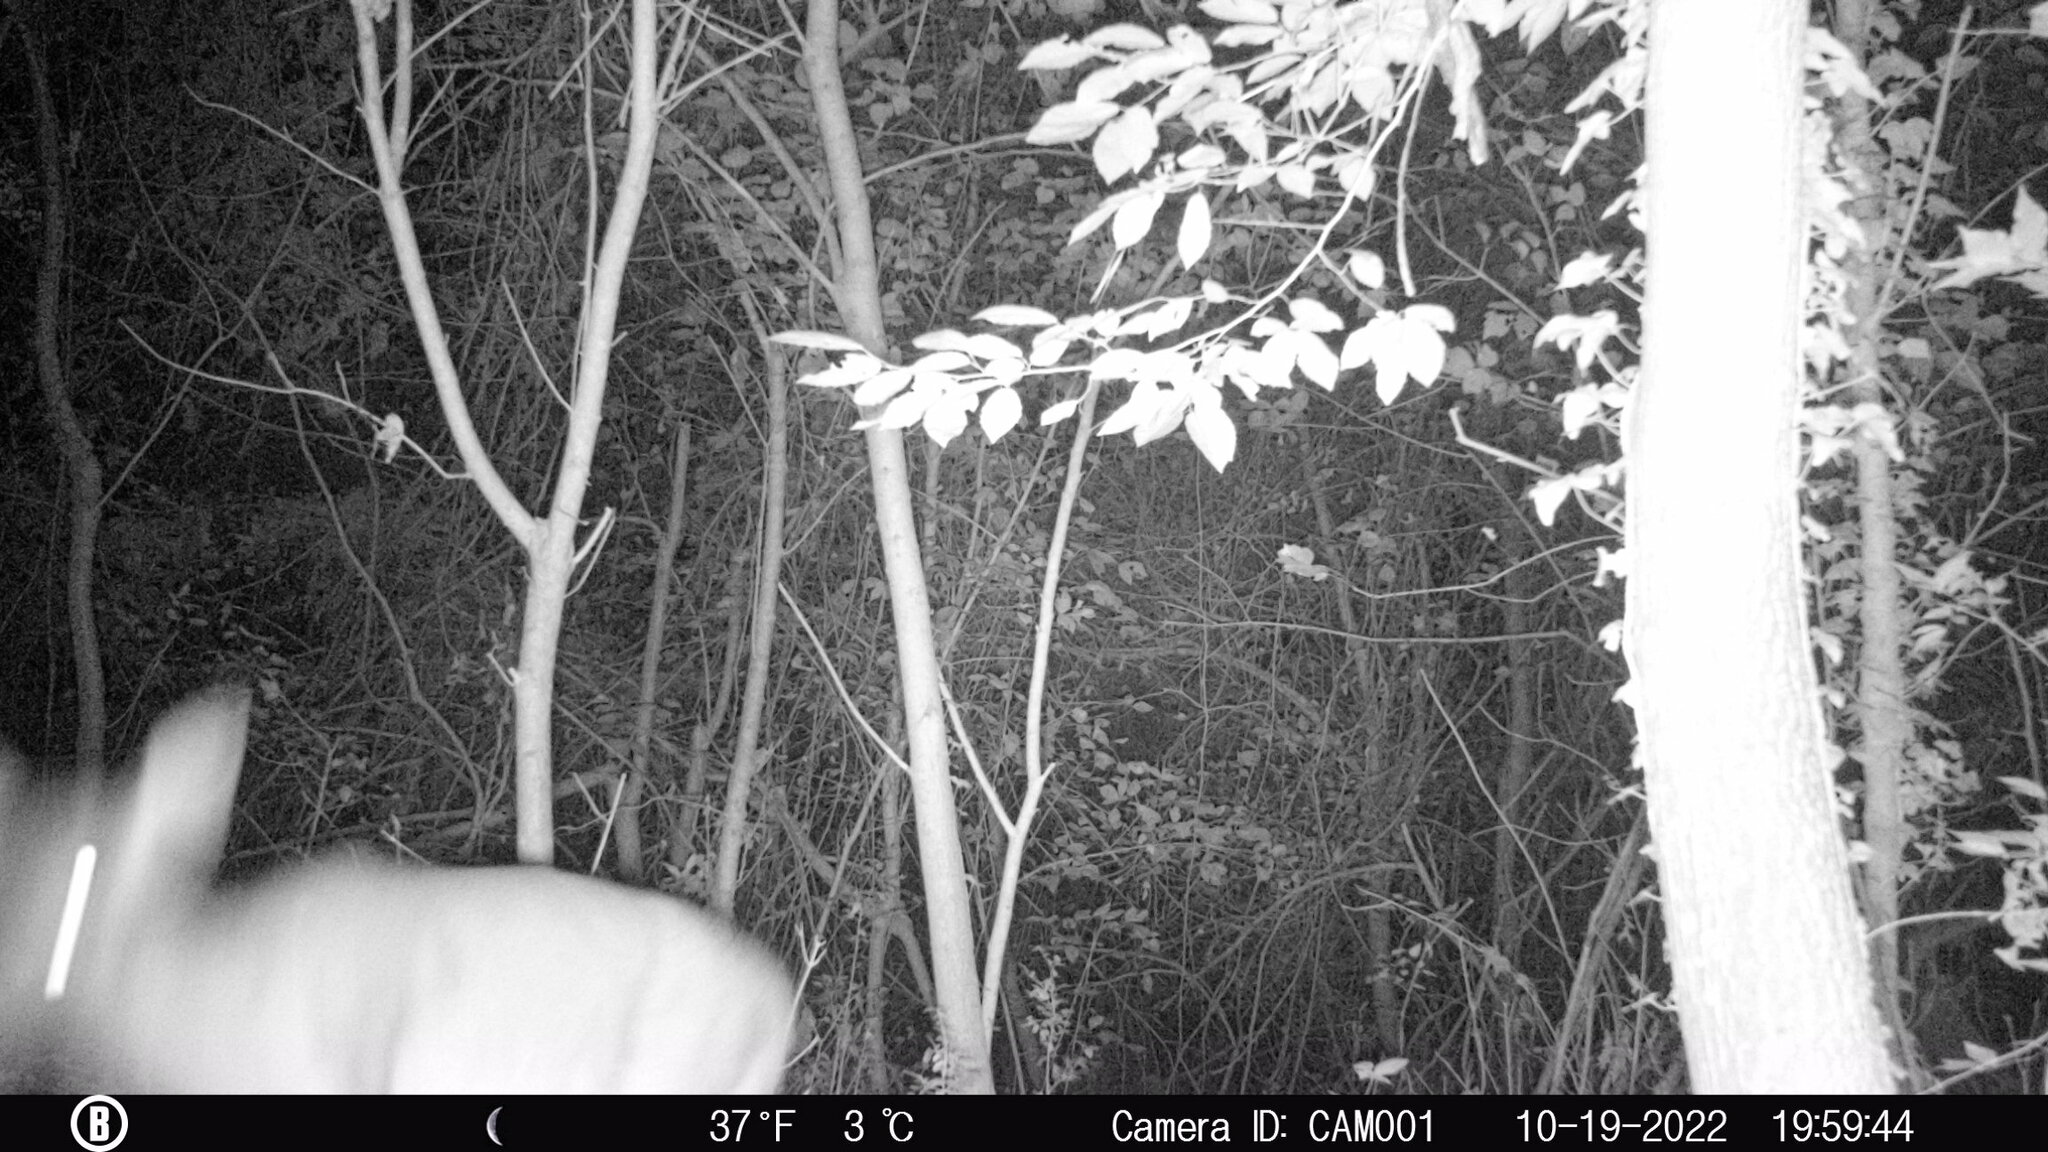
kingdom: Animalia
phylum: Chordata
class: Mammalia
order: Artiodactyla
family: Cervidae
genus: Odocoileus
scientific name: Odocoileus virginianus
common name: White-tailed deer
